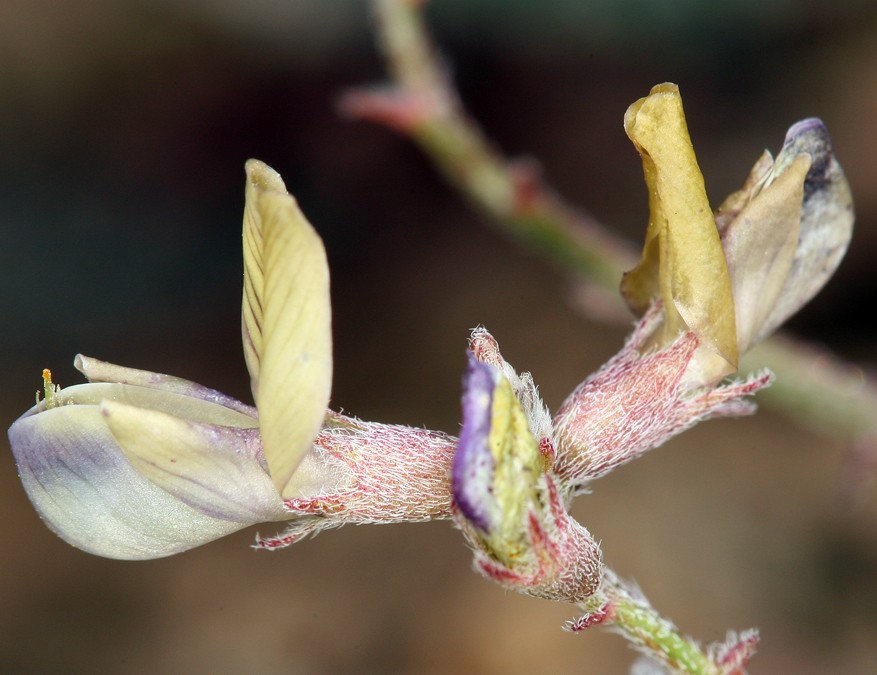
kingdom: Plantae
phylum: Tracheophyta
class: Magnoliopsida
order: Fabales
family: Fabaceae
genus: Astragalus
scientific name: Astragalus inyoensis
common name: Inyo locoweed
